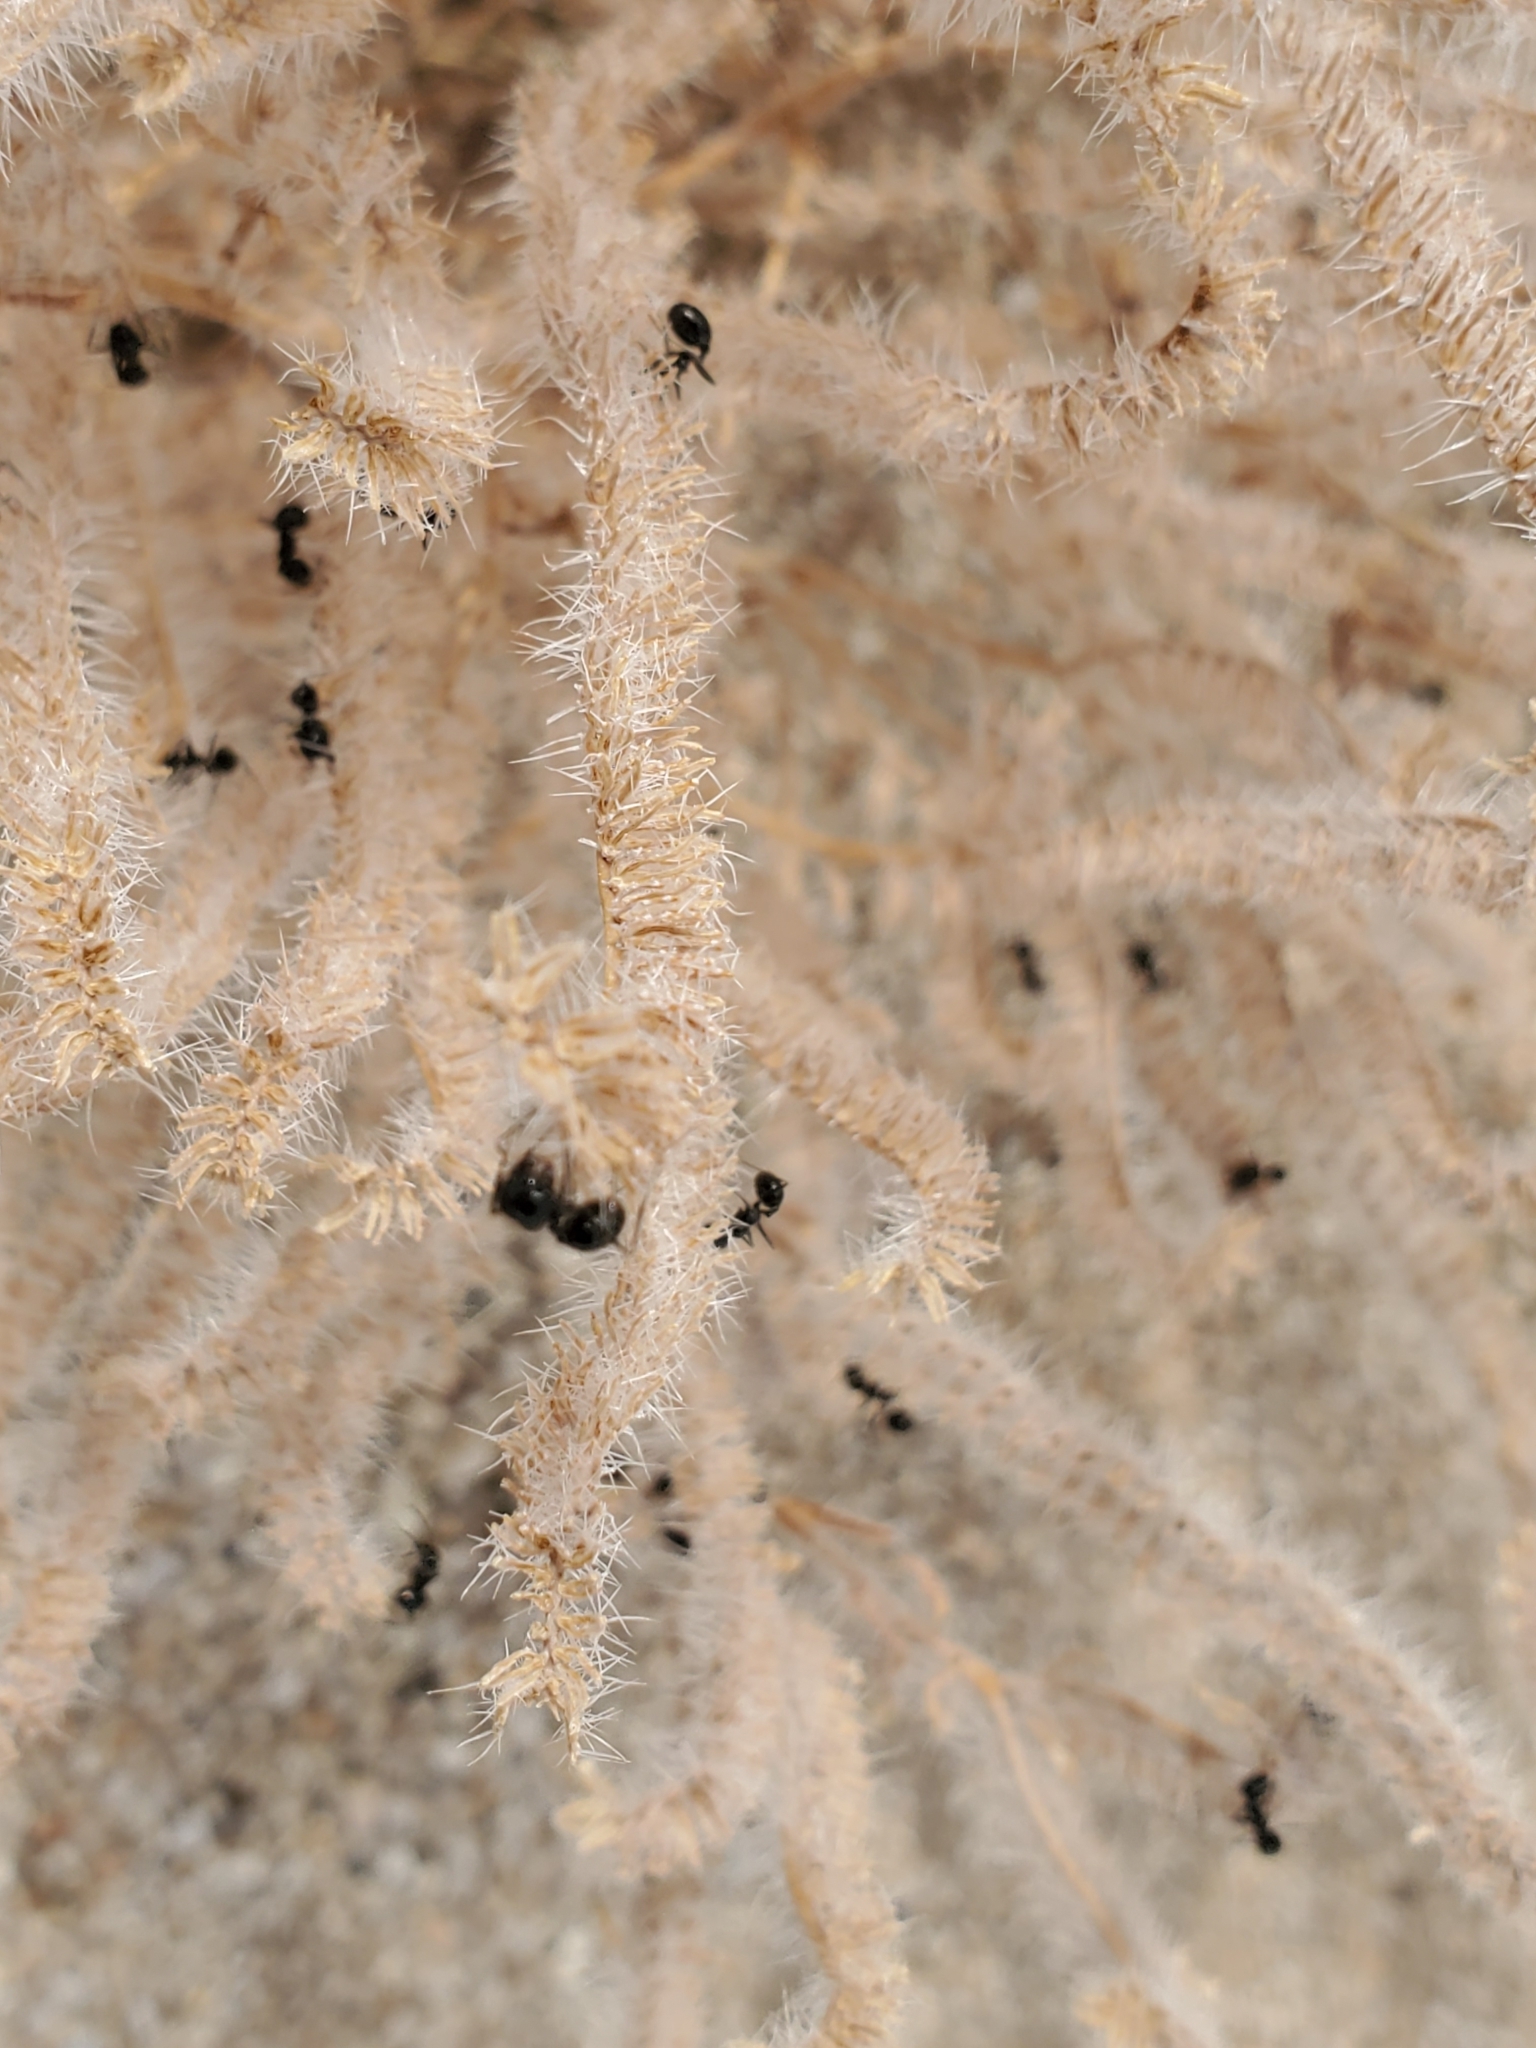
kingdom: Plantae
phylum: Tracheophyta
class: Magnoliopsida
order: Boraginales
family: Boraginaceae
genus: Johnstonella
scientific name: Johnstonella angustifolia
